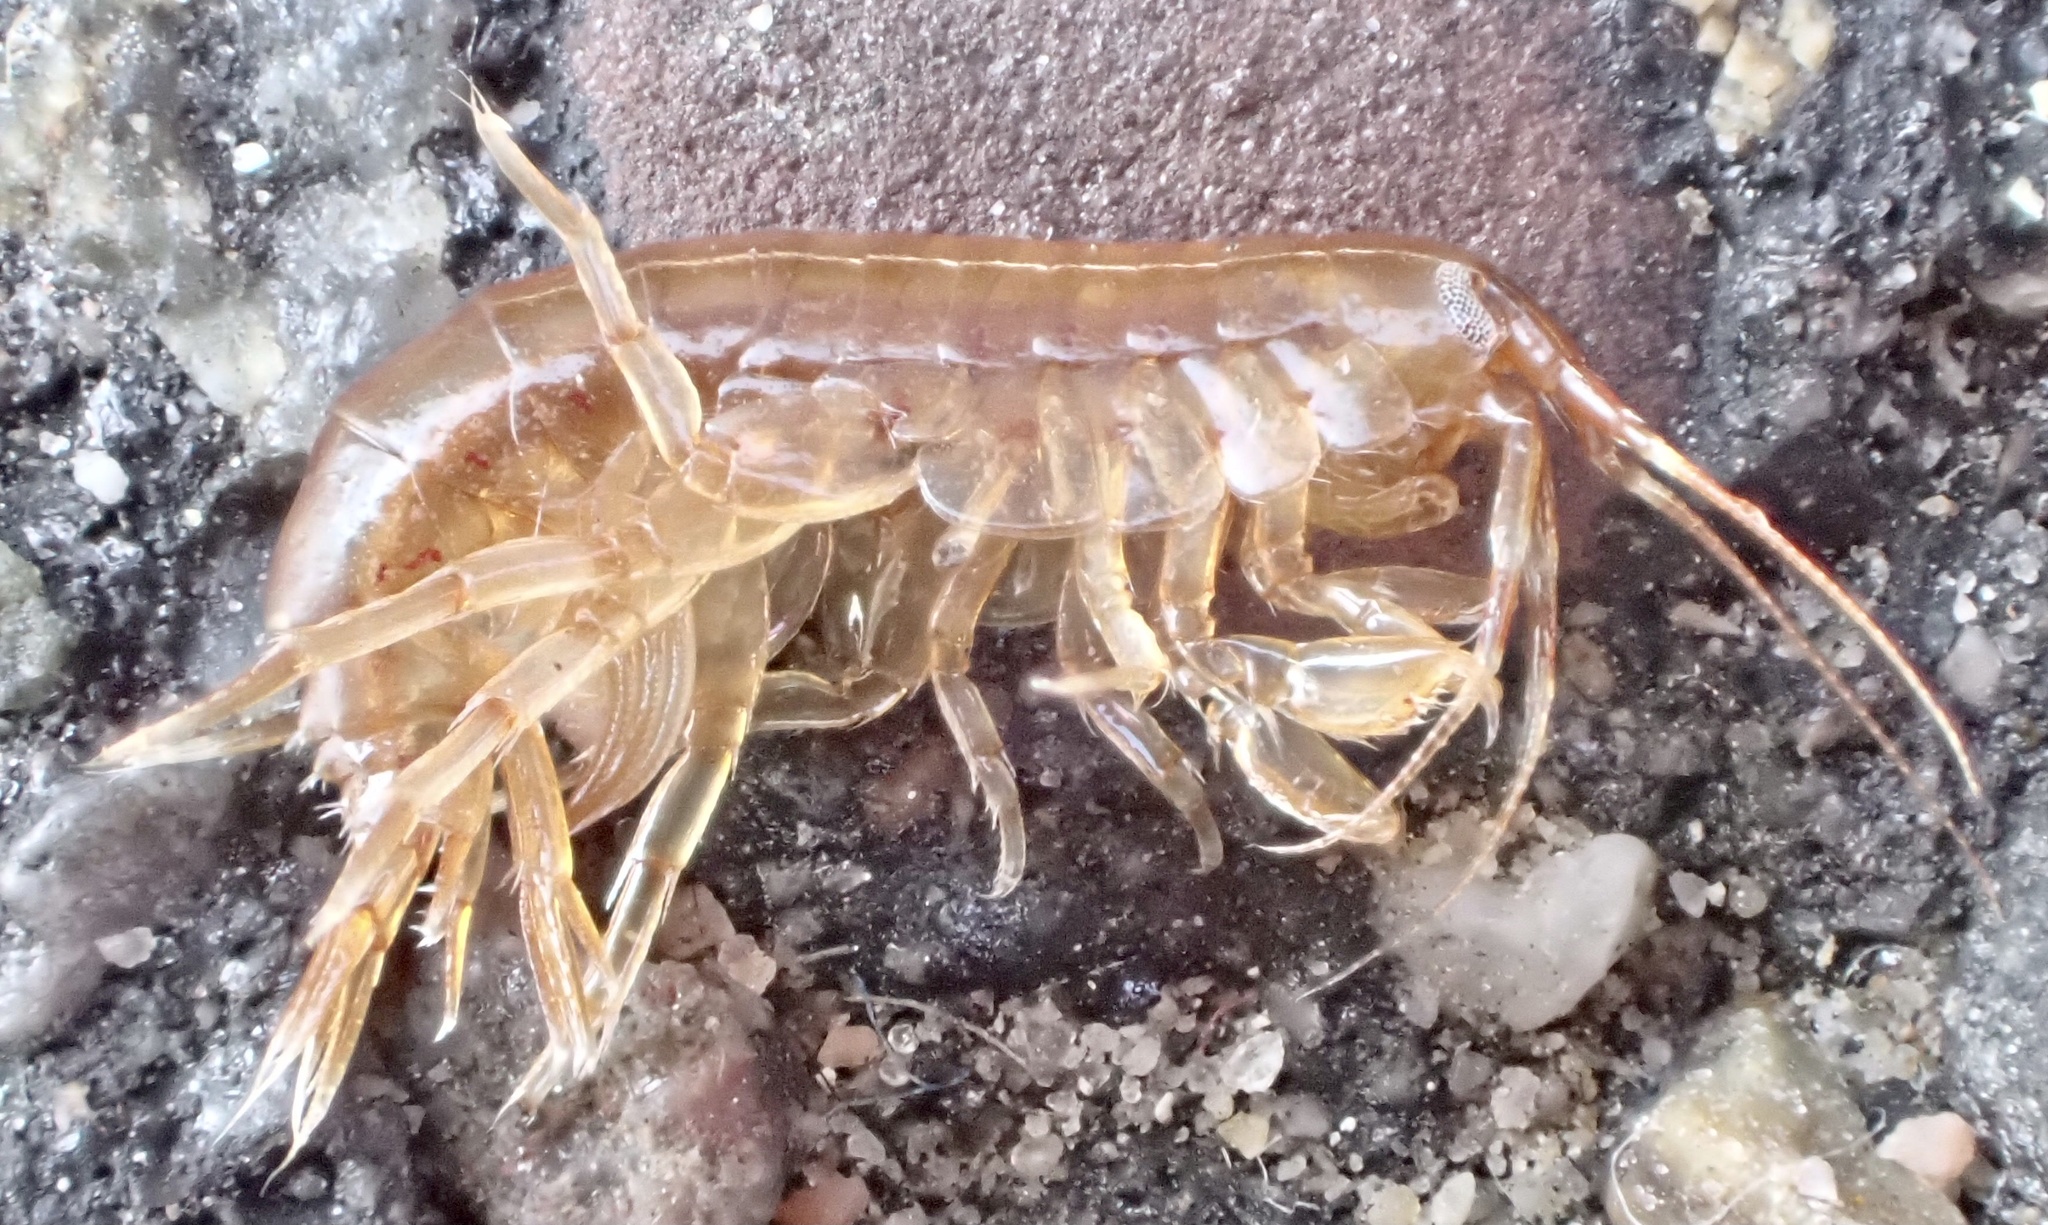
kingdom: Animalia
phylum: Arthropoda
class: Malacostraca
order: Amphipoda
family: Gammaridae
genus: Gammarus
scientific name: Gammarus locusta
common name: Common intertidal amphipod
